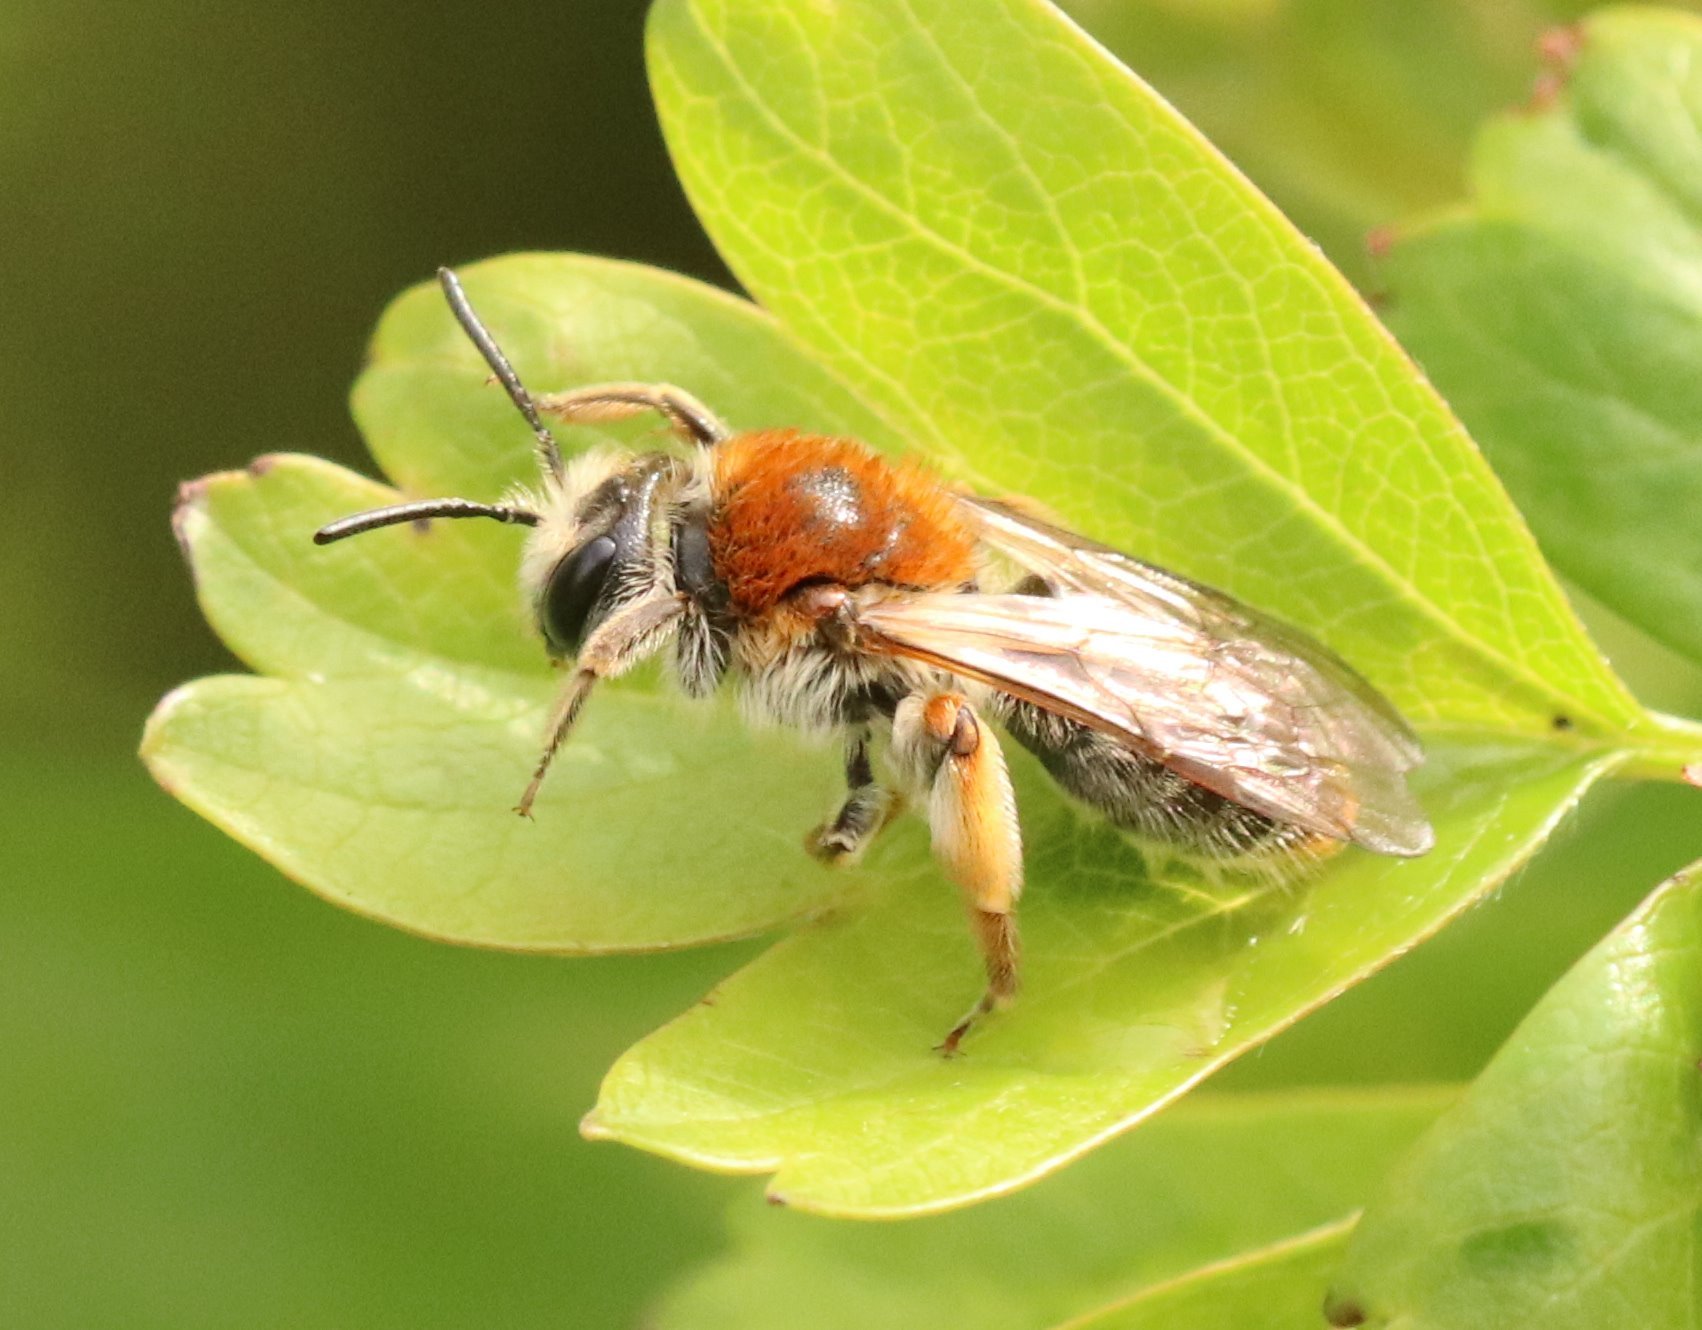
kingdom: Animalia
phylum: Arthropoda
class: Insecta
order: Hymenoptera
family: Andrenidae
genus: Andrena
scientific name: Andrena haemorrhoa
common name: Early mining bee
